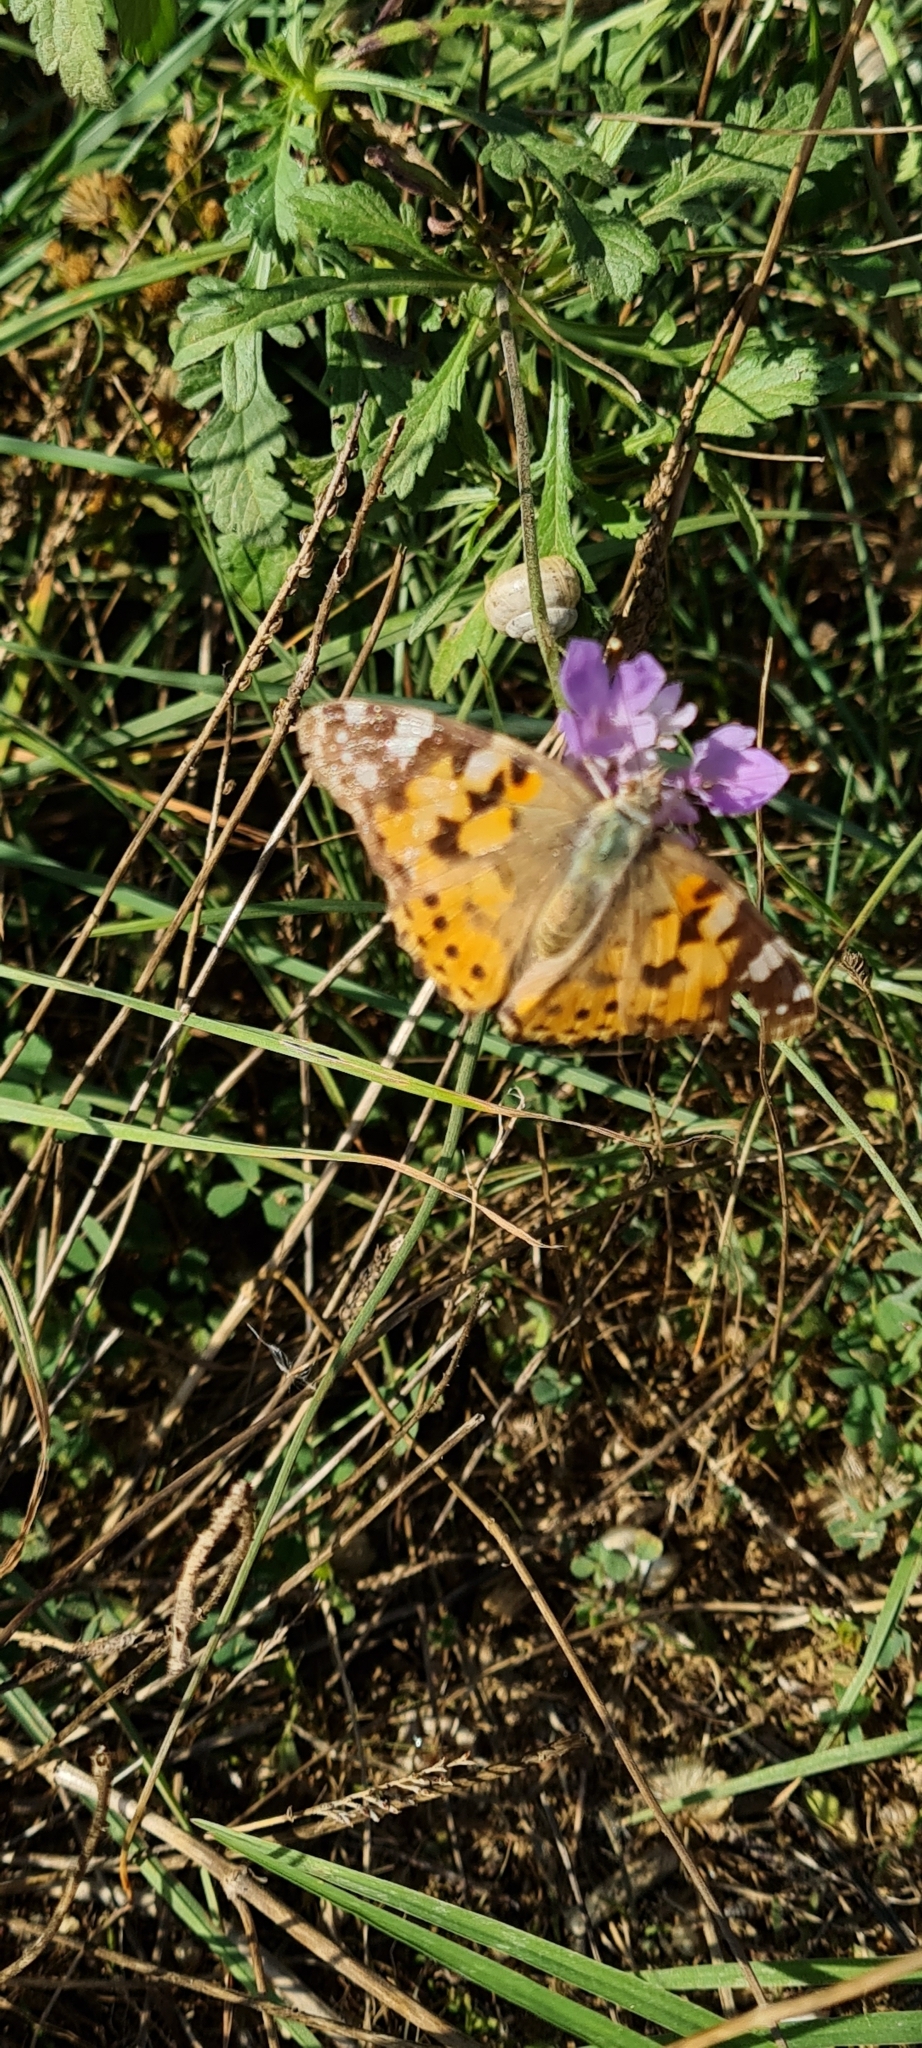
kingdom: Animalia
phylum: Arthropoda
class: Insecta
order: Lepidoptera
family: Nymphalidae
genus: Vanessa
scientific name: Vanessa cardui
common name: Painted lady
